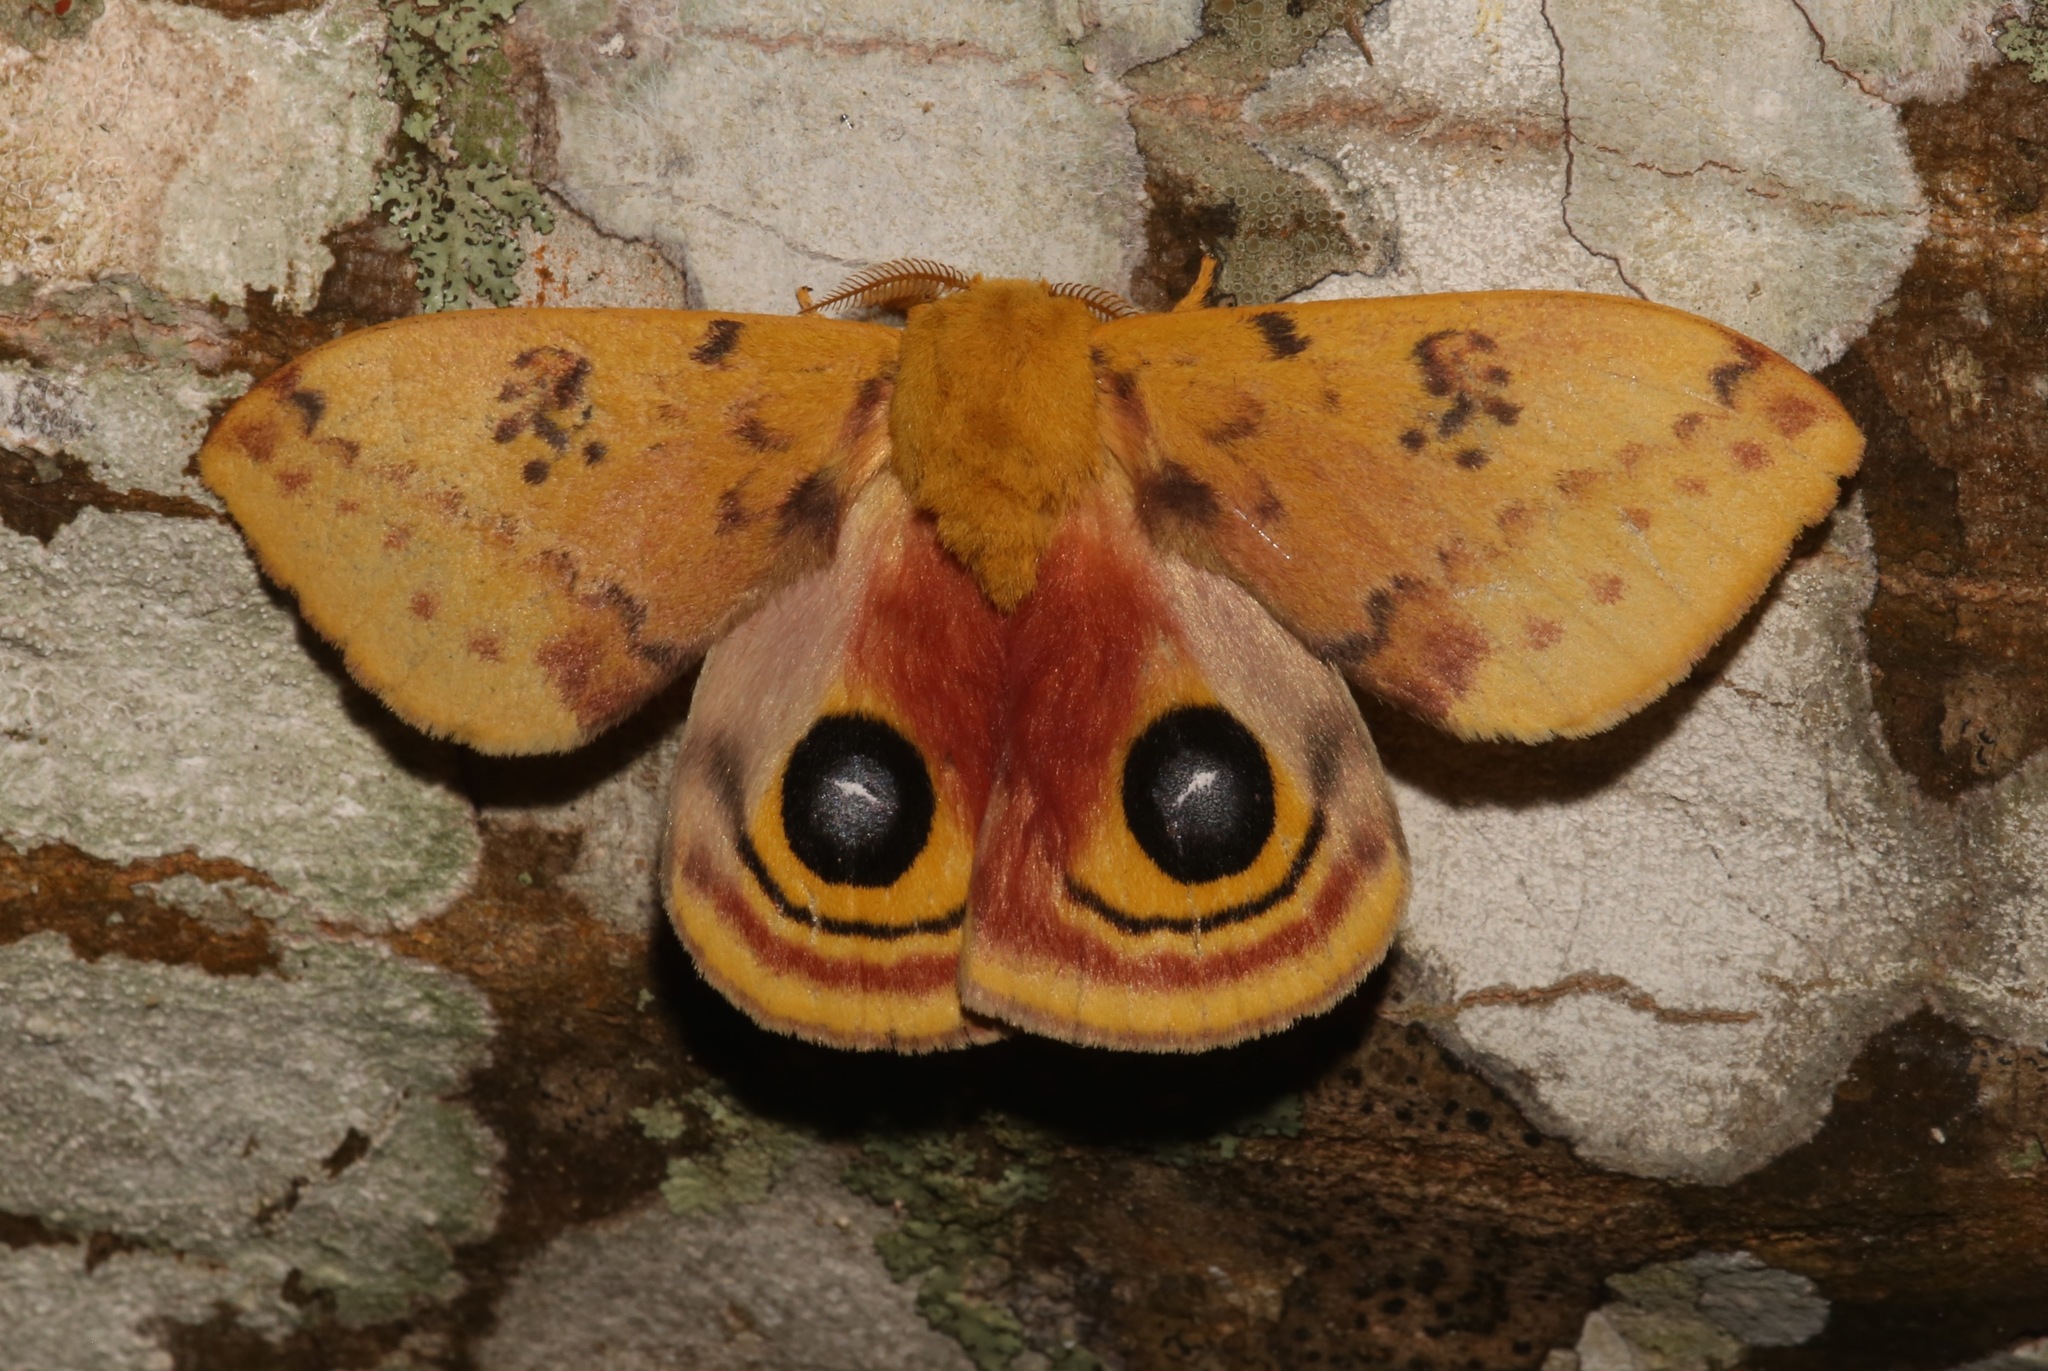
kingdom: Animalia
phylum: Arthropoda
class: Insecta
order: Lepidoptera
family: Saturniidae
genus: Automeris
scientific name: Automeris io
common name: Io moth
